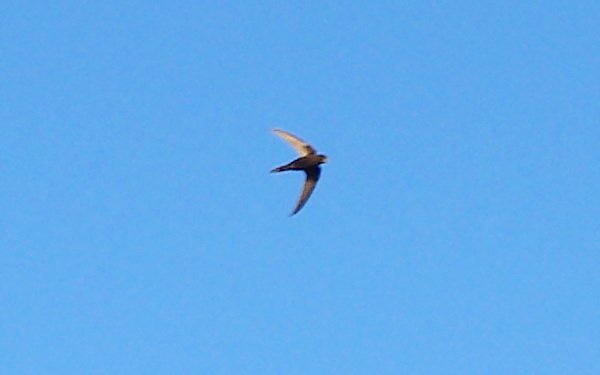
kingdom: Animalia
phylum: Chordata
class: Aves
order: Apodiformes
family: Apodidae
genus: Apus
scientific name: Apus apus
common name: Common swift
